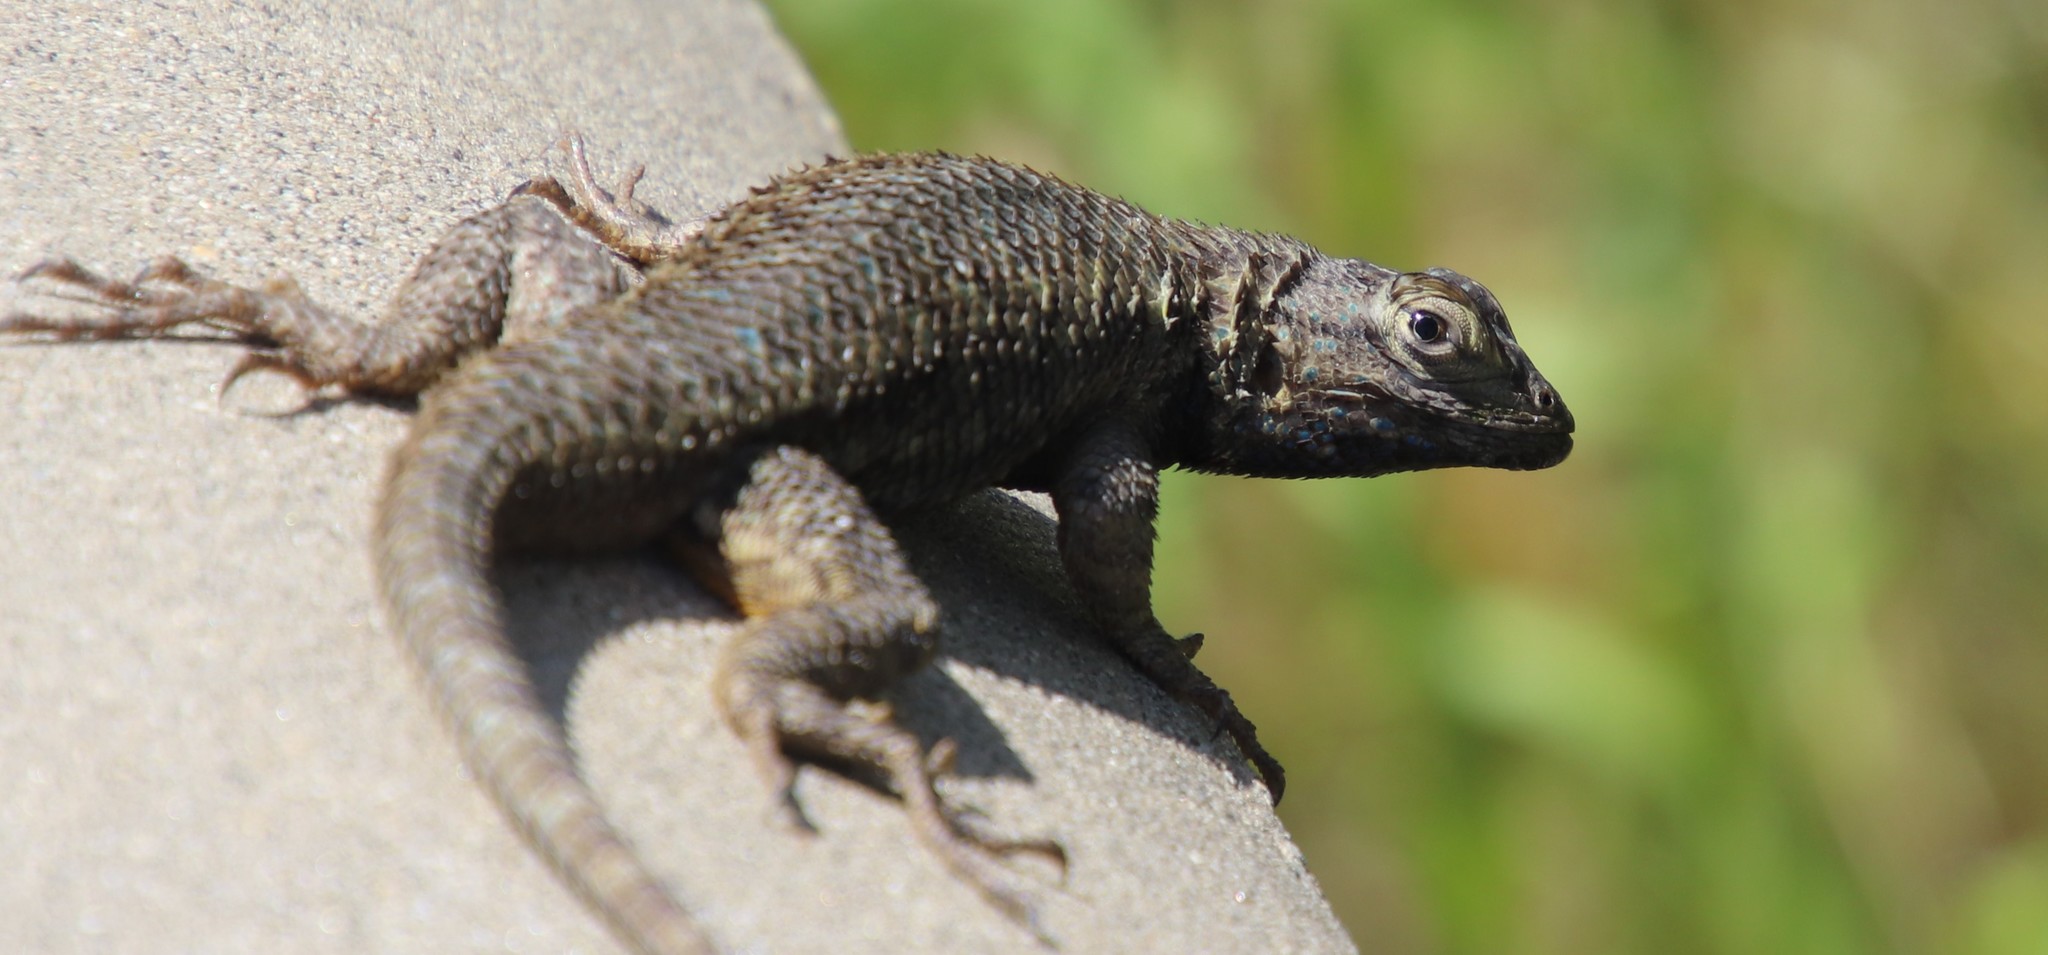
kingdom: Animalia
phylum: Chordata
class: Squamata
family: Phrynosomatidae
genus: Sceloporus
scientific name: Sceloporus occidentalis
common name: Western fence lizard
